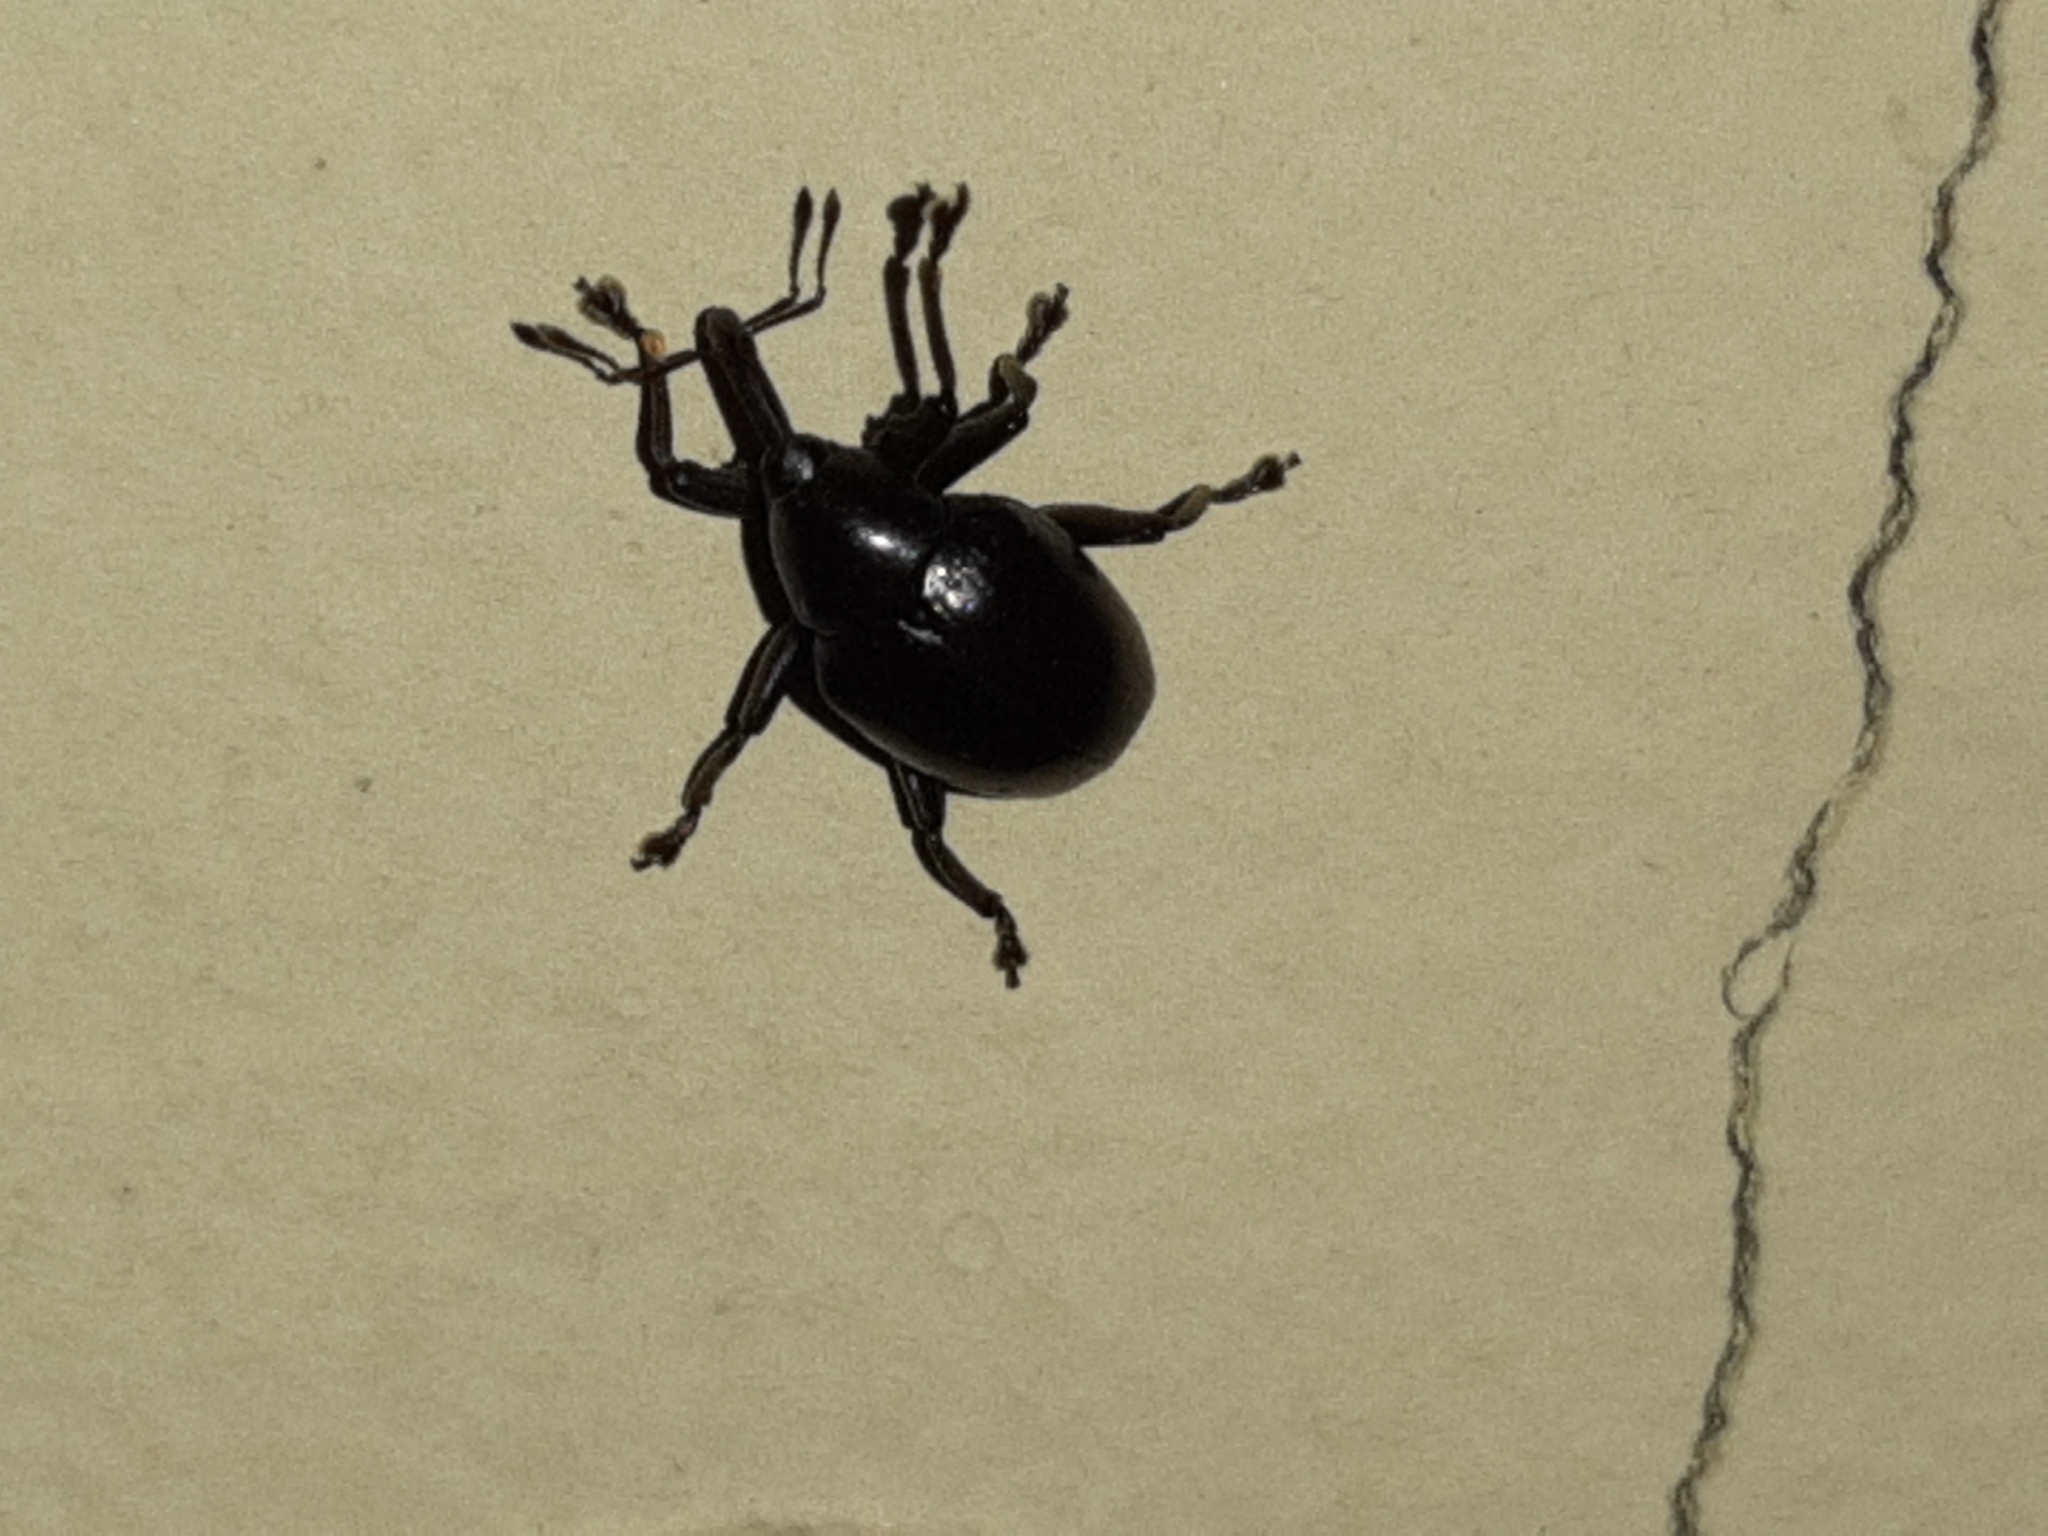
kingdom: Animalia
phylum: Arthropoda
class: Insecta
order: Coleoptera
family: Curculionidae
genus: Cleogonus
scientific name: Cleogonus rubetra
